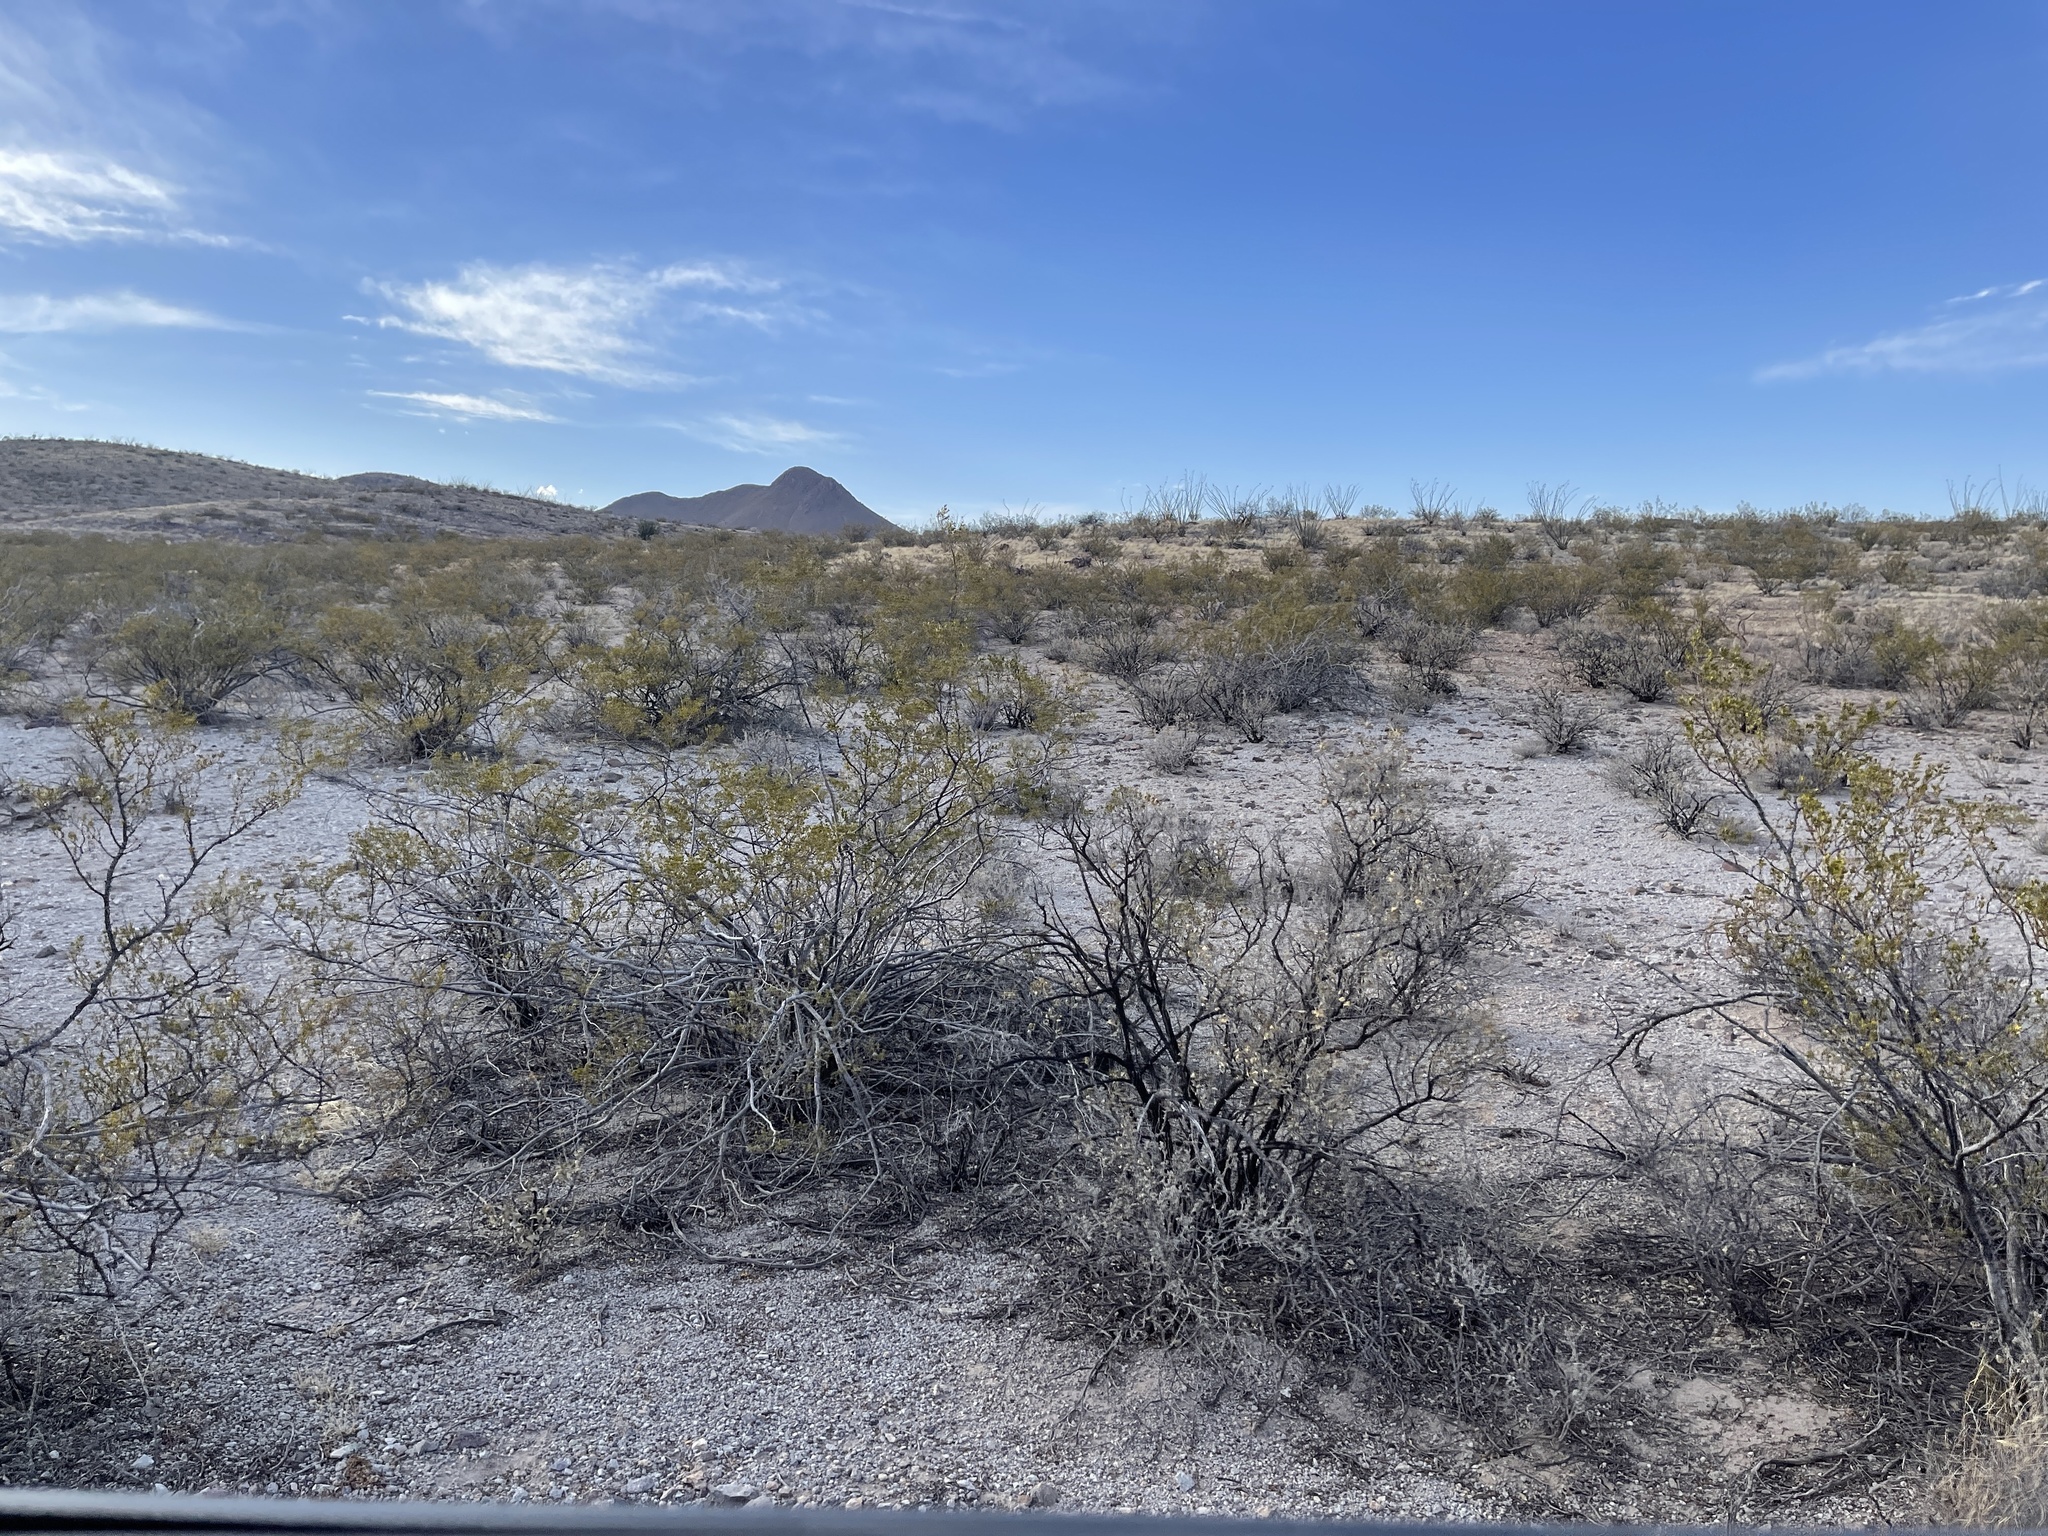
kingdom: Plantae
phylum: Tracheophyta
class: Magnoliopsida
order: Zygophyllales
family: Zygophyllaceae
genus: Larrea
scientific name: Larrea tridentata
